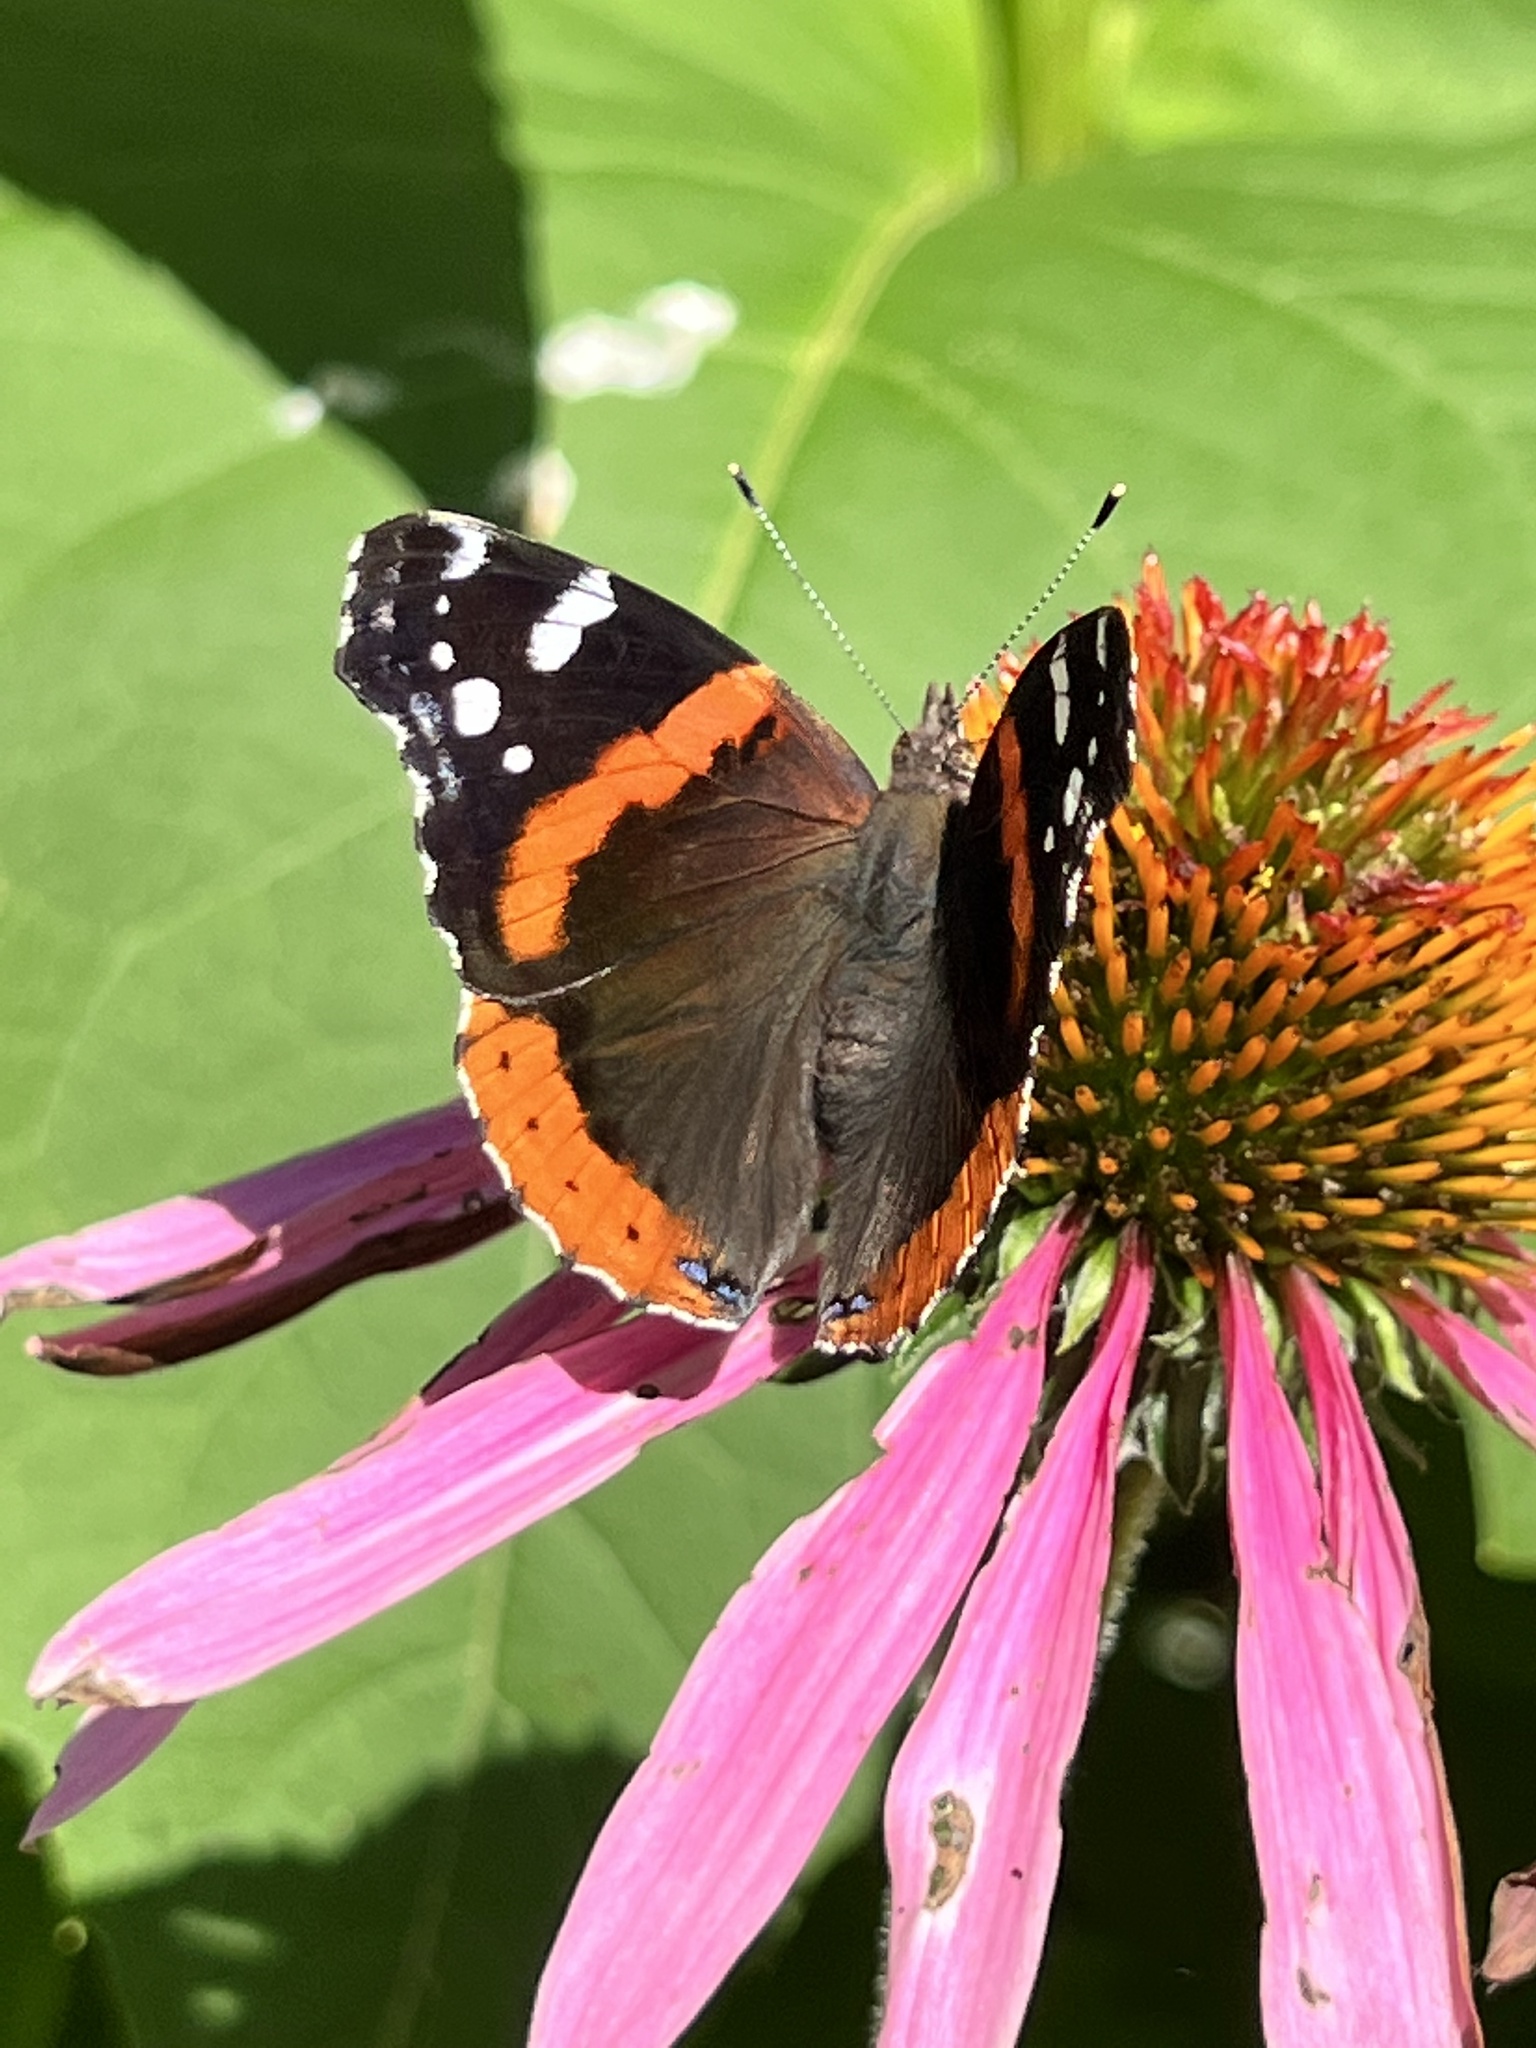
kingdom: Animalia
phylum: Arthropoda
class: Insecta
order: Lepidoptera
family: Nymphalidae
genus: Vanessa
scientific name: Vanessa atalanta
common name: Red admiral
